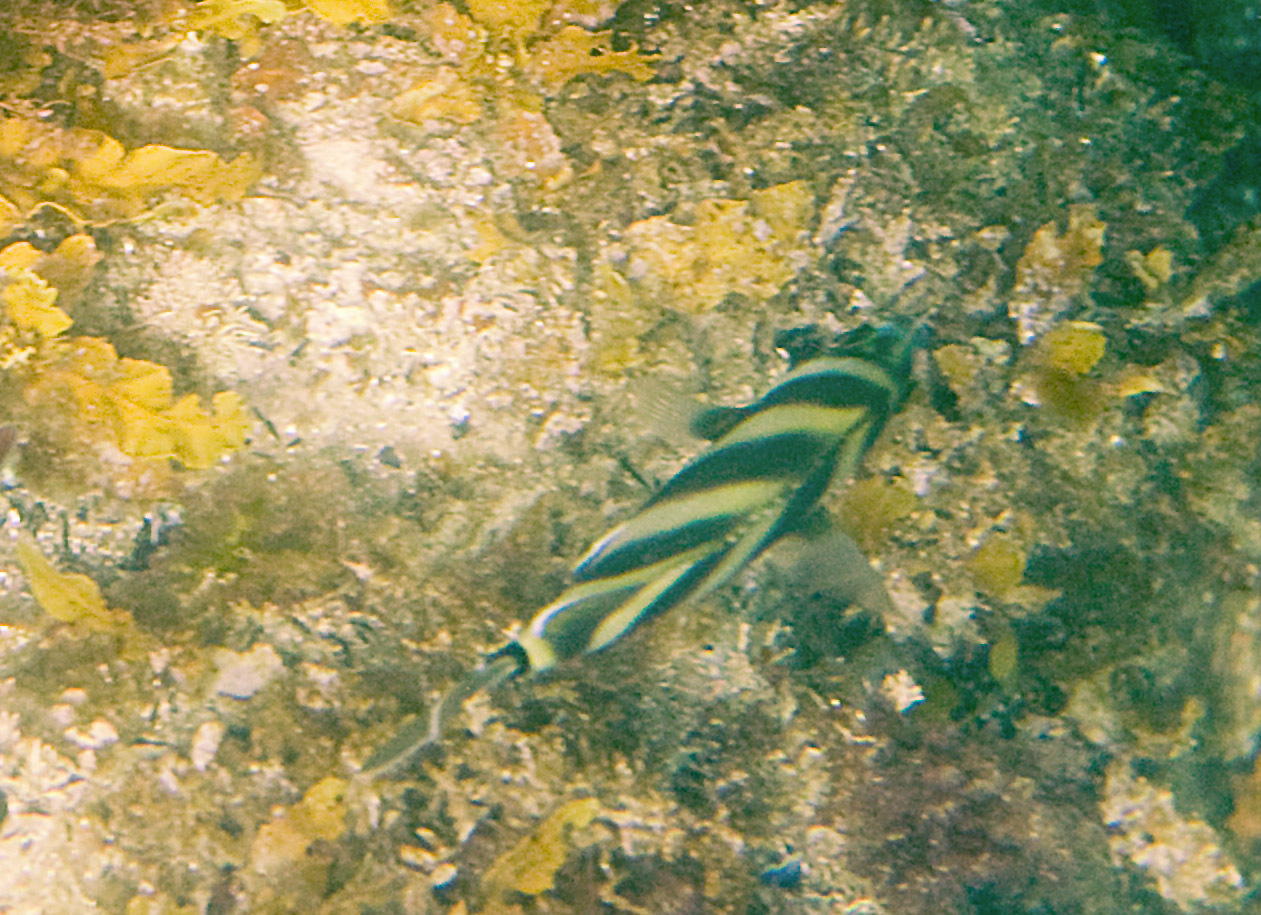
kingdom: Animalia
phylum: Chordata
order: Perciformes
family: Kyphosidae
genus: Tilodon
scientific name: Tilodon sexfasciatus
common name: Moonlighter
